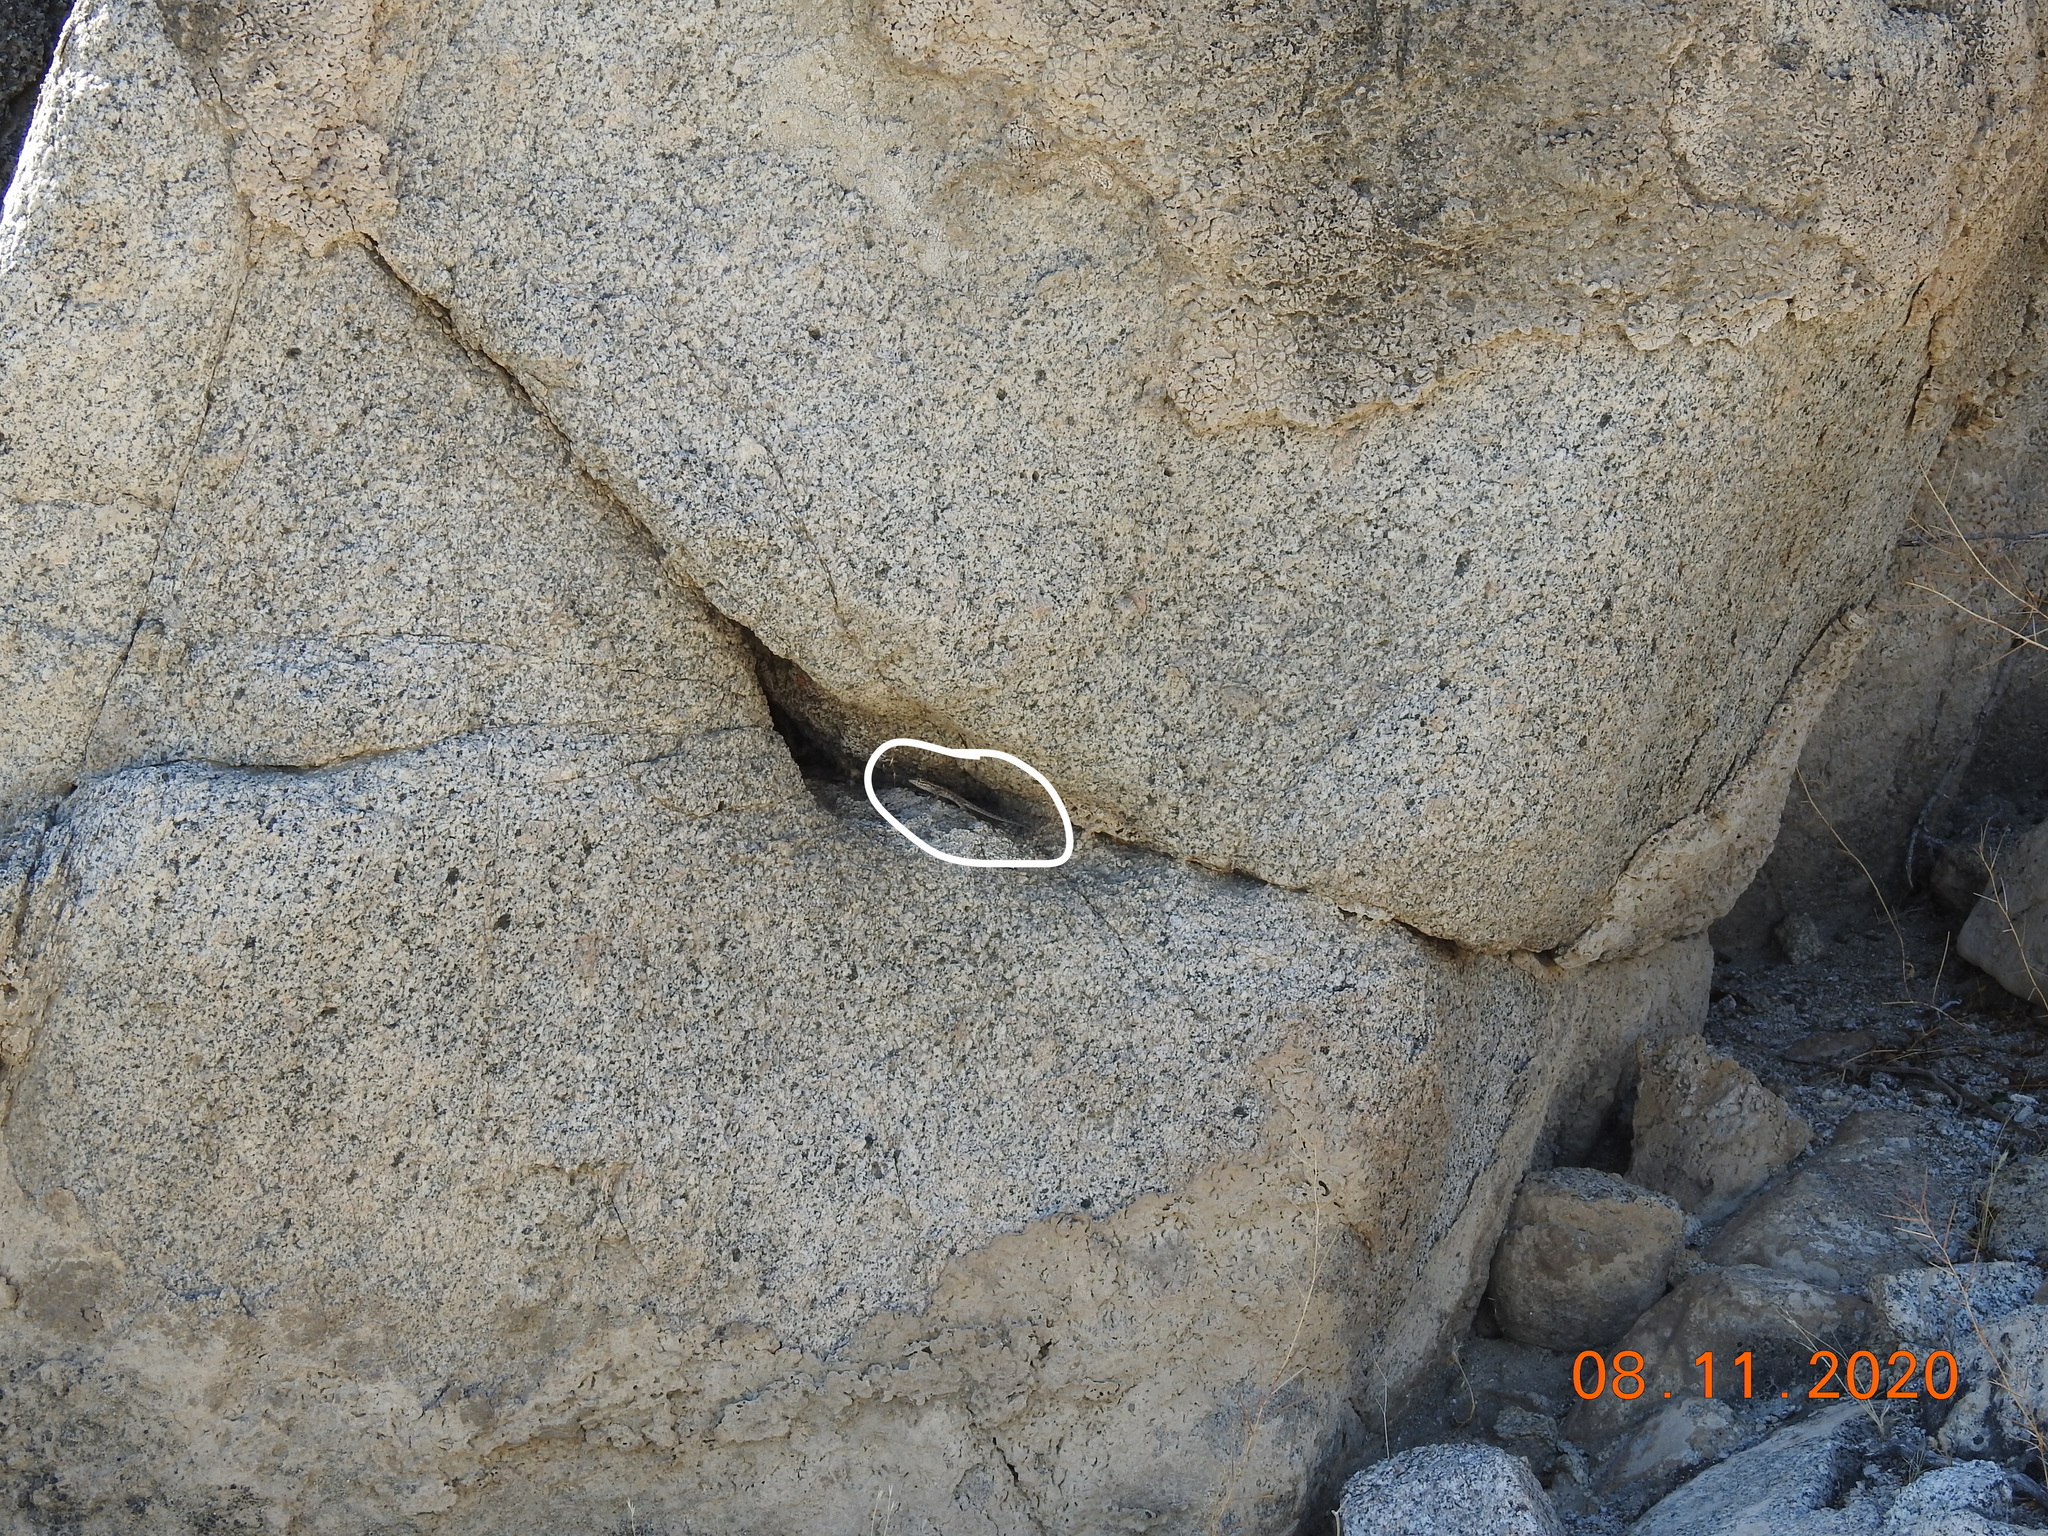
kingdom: Animalia
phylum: Chordata
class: Squamata
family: Phrynosomatidae
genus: Uta
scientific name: Uta stansburiana
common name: Side-blotched lizard
